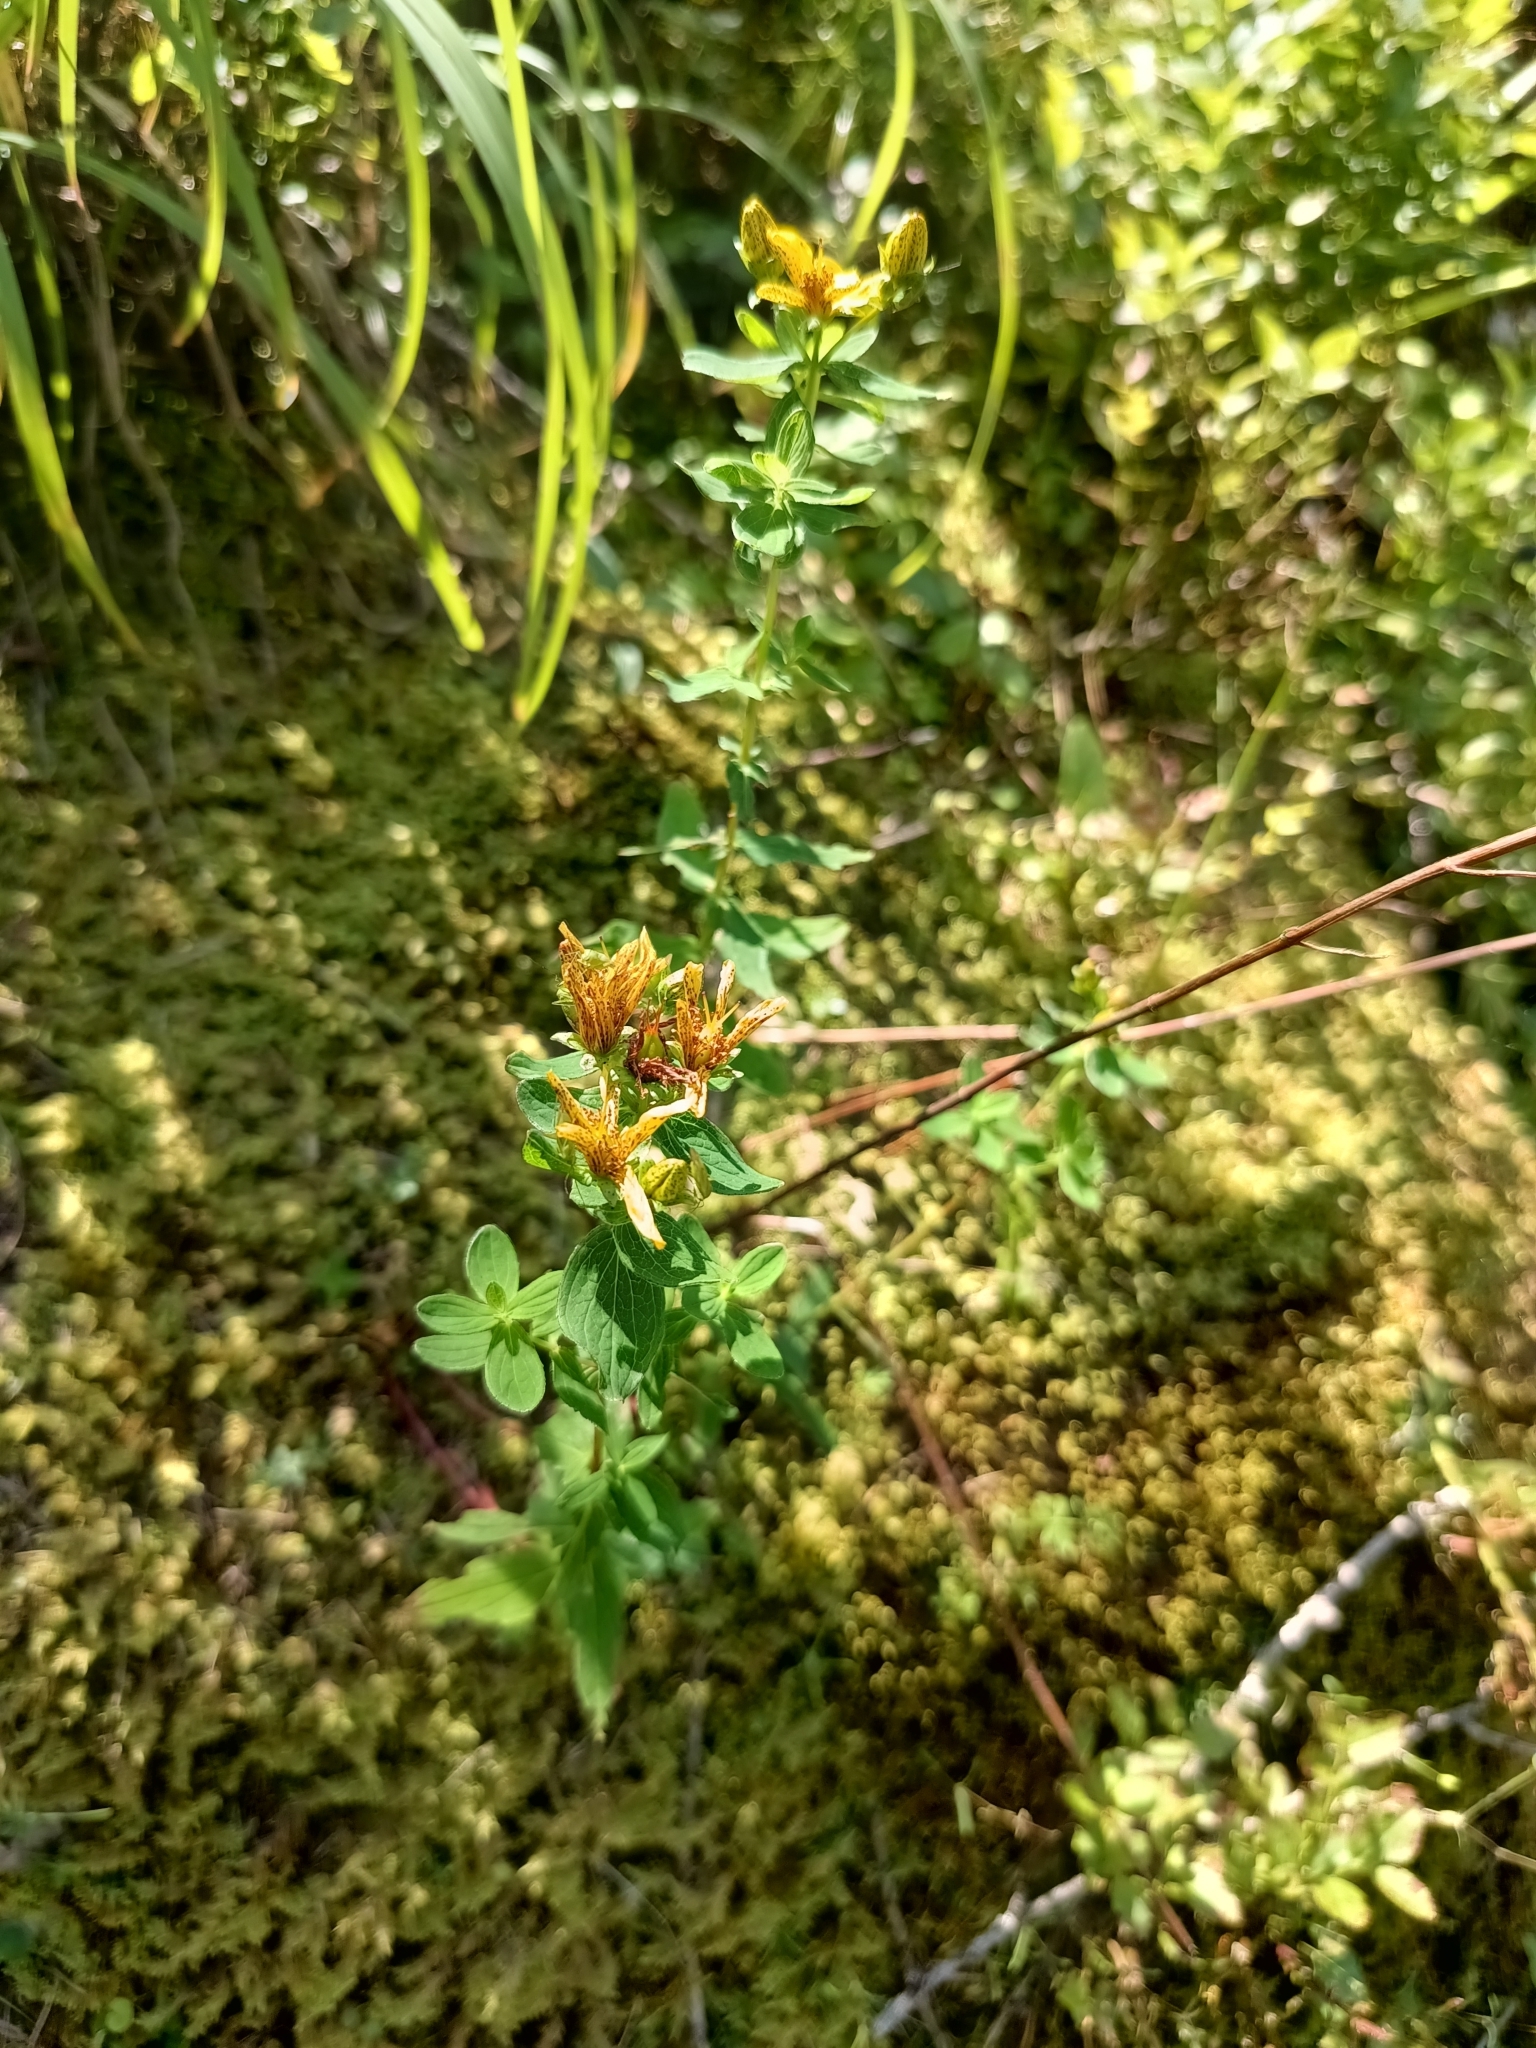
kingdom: Plantae
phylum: Tracheophyta
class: Magnoliopsida
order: Malpighiales
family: Hypericaceae
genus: Hypericum
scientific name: Hypericum maculatum
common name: Imperforate st. john's-wort
